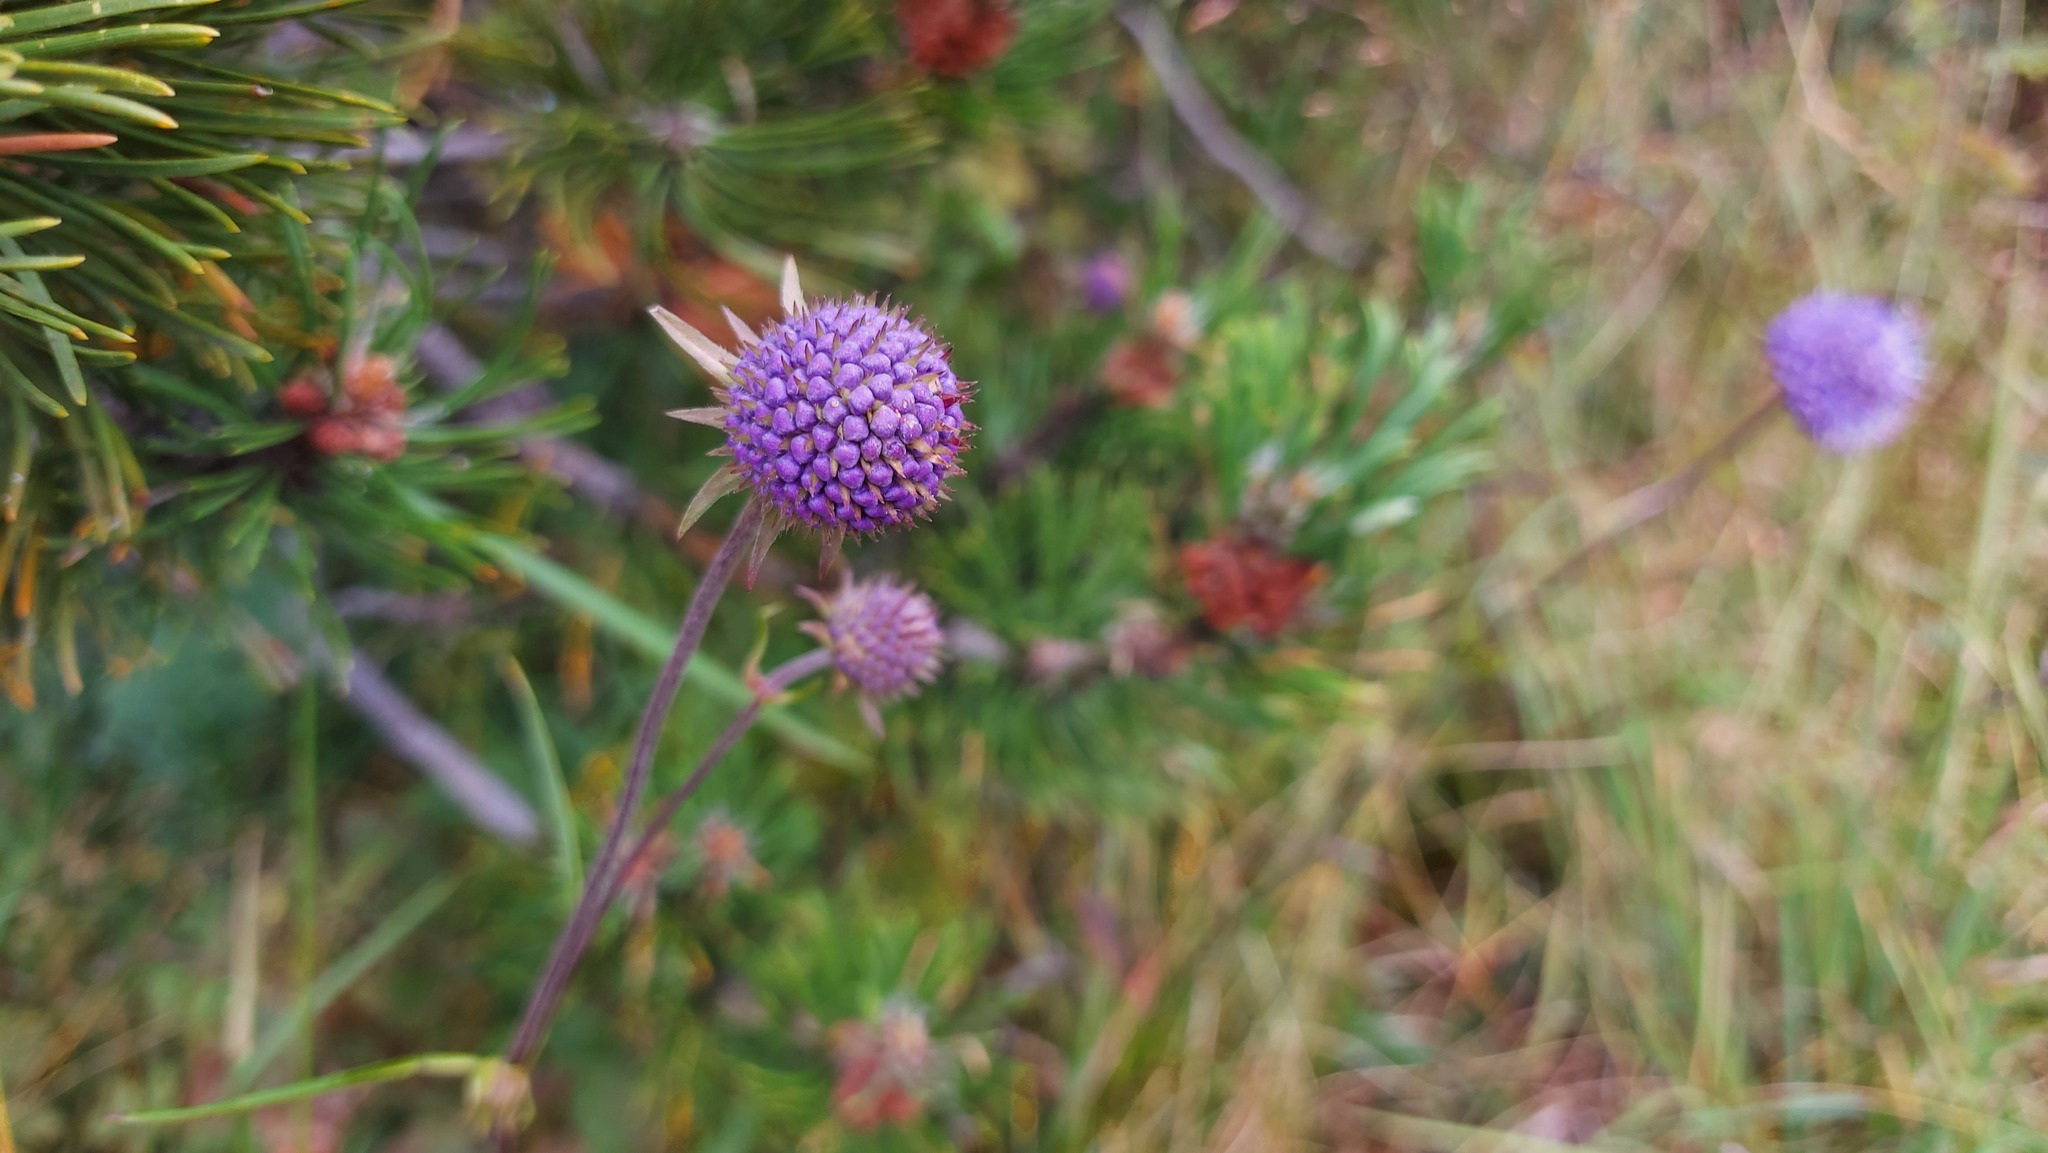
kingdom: Plantae
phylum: Tracheophyta
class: Magnoliopsida
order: Dipsacales
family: Caprifoliaceae
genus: Succisa
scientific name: Succisa pratensis
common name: Devil's-bit
